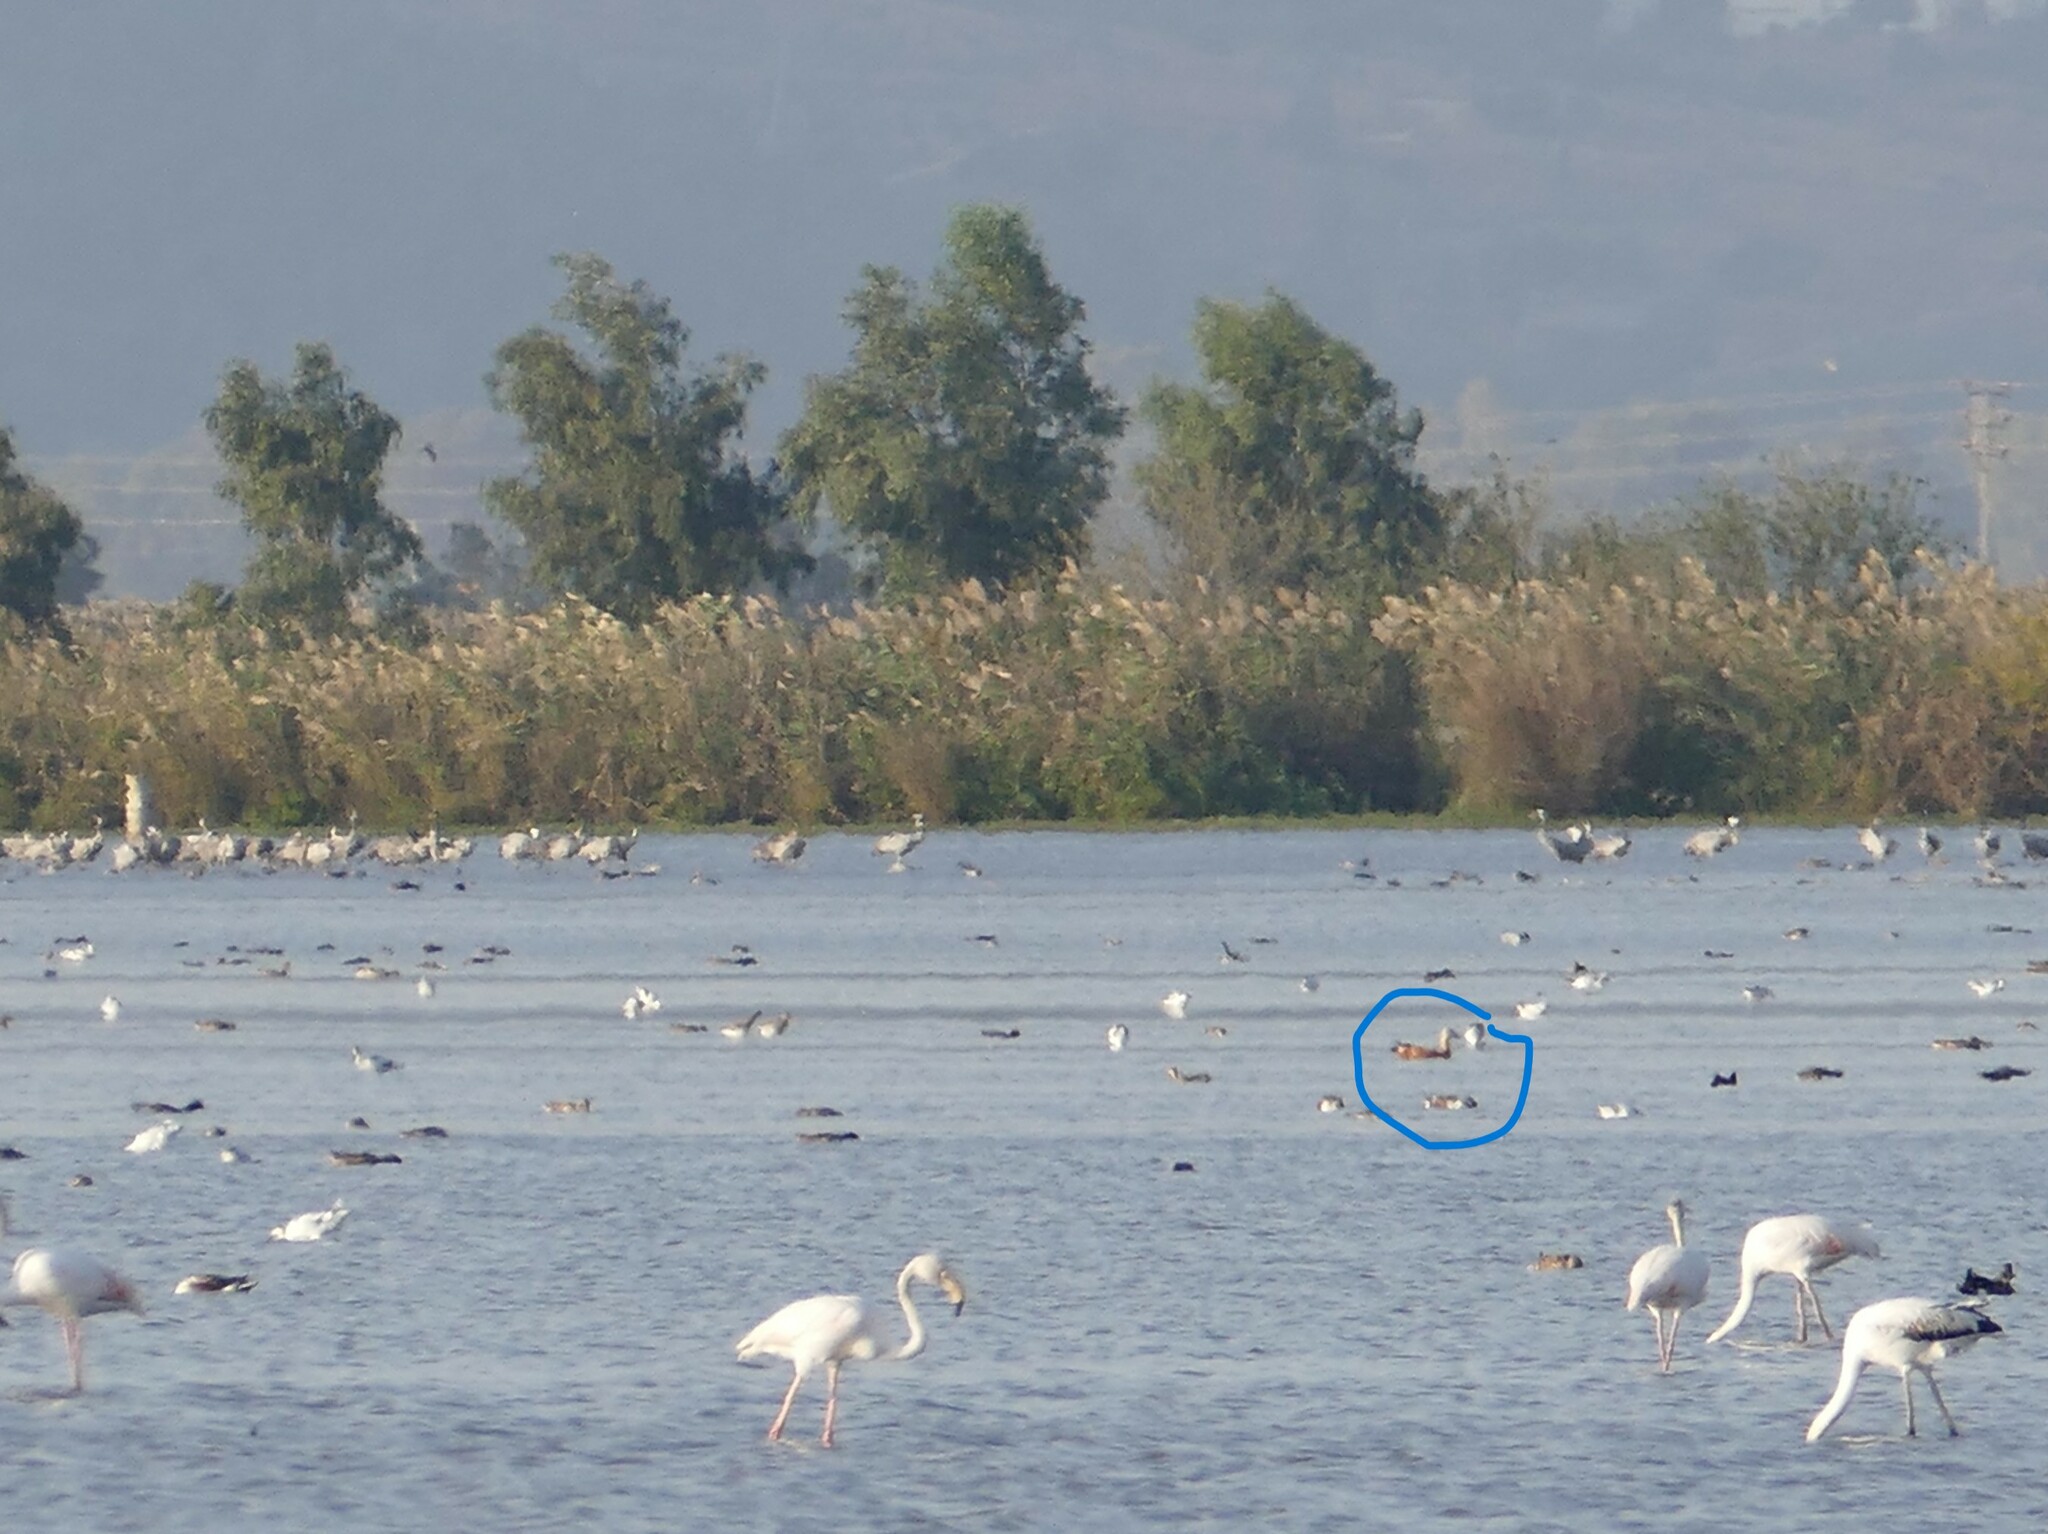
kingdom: Animalia
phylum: Chordata
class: Aves
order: Anseriformes
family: Anatidae
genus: Tadorna
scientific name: Tadorna ferruginea
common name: Ruddy shelduck
